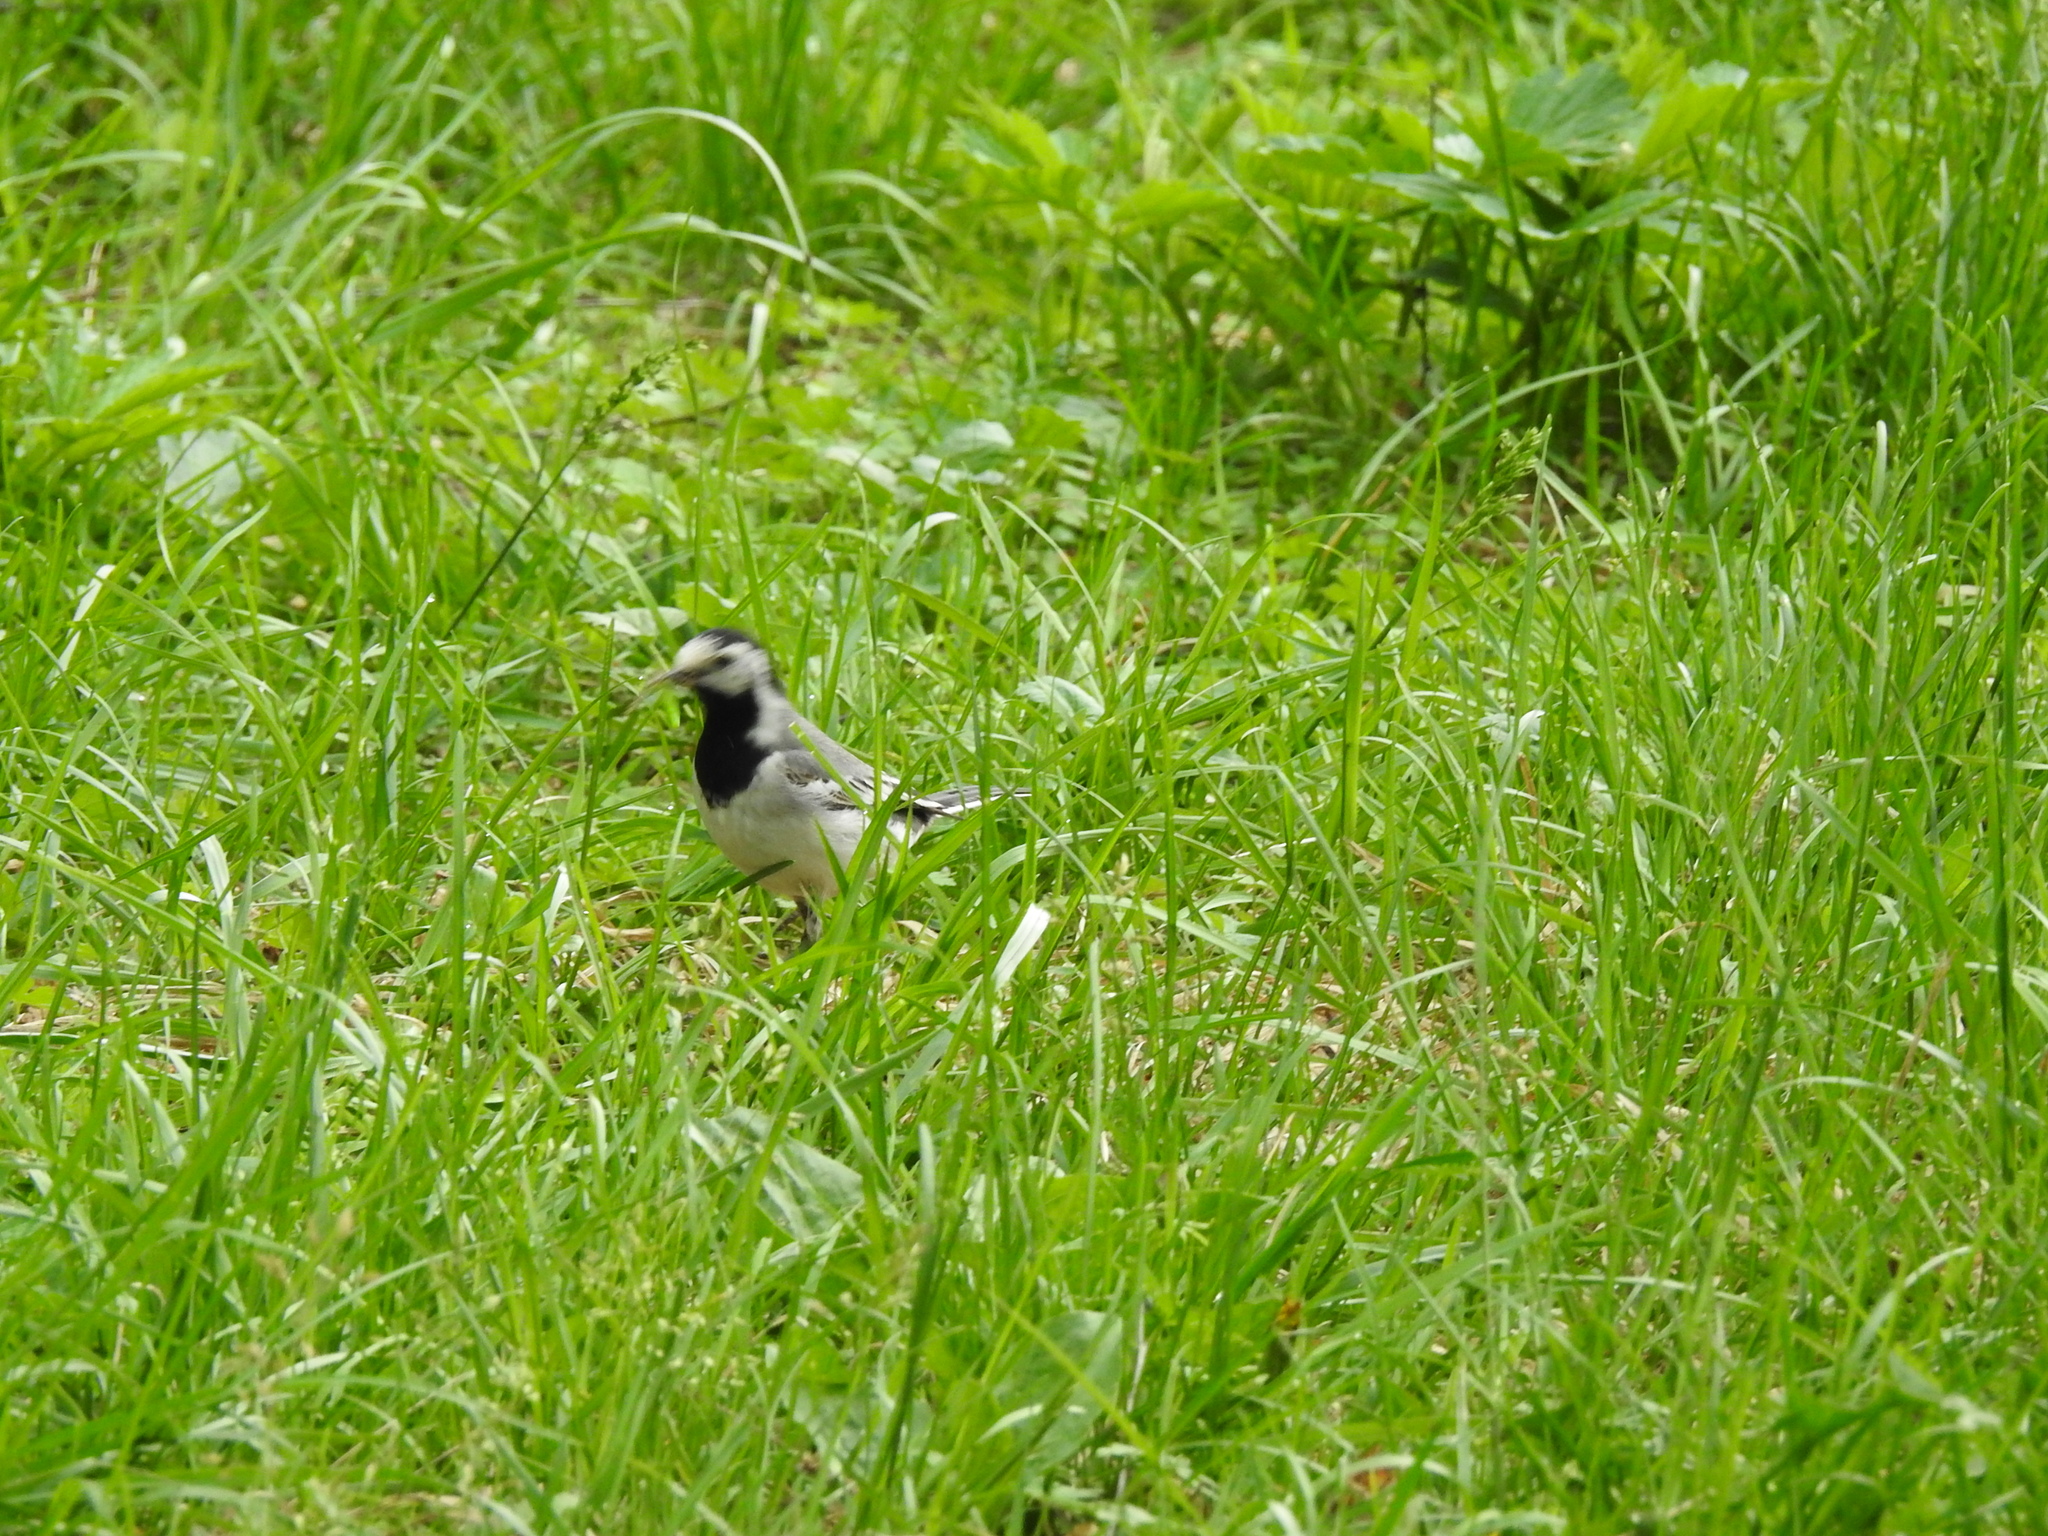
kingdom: Animalia
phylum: Chordata
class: Aves
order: Passeriformes
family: Motacillidae
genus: Motacilla
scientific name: Motacilla alba
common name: White wagtail
